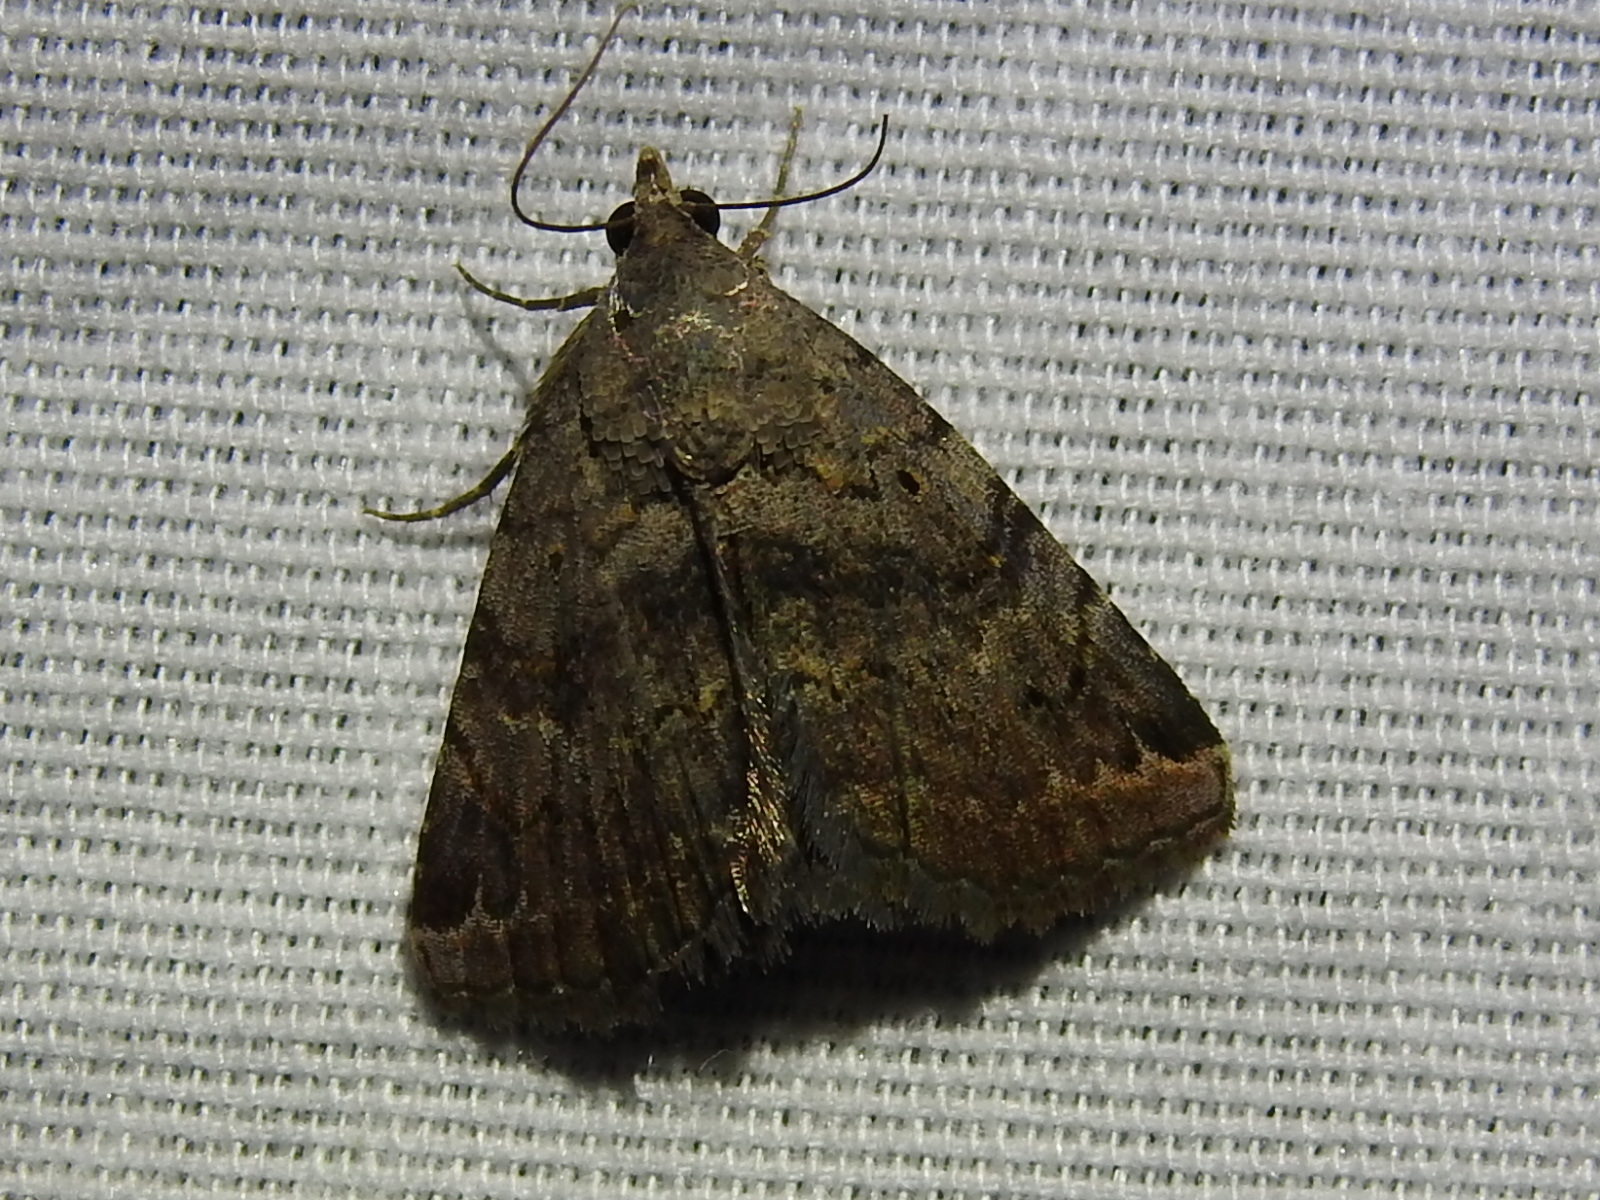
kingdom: Animalia
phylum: Arthropoda
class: Insecta
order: Lepidoptera
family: Erebidae
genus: Toxonprucha
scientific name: Toxonprucha crudelis
